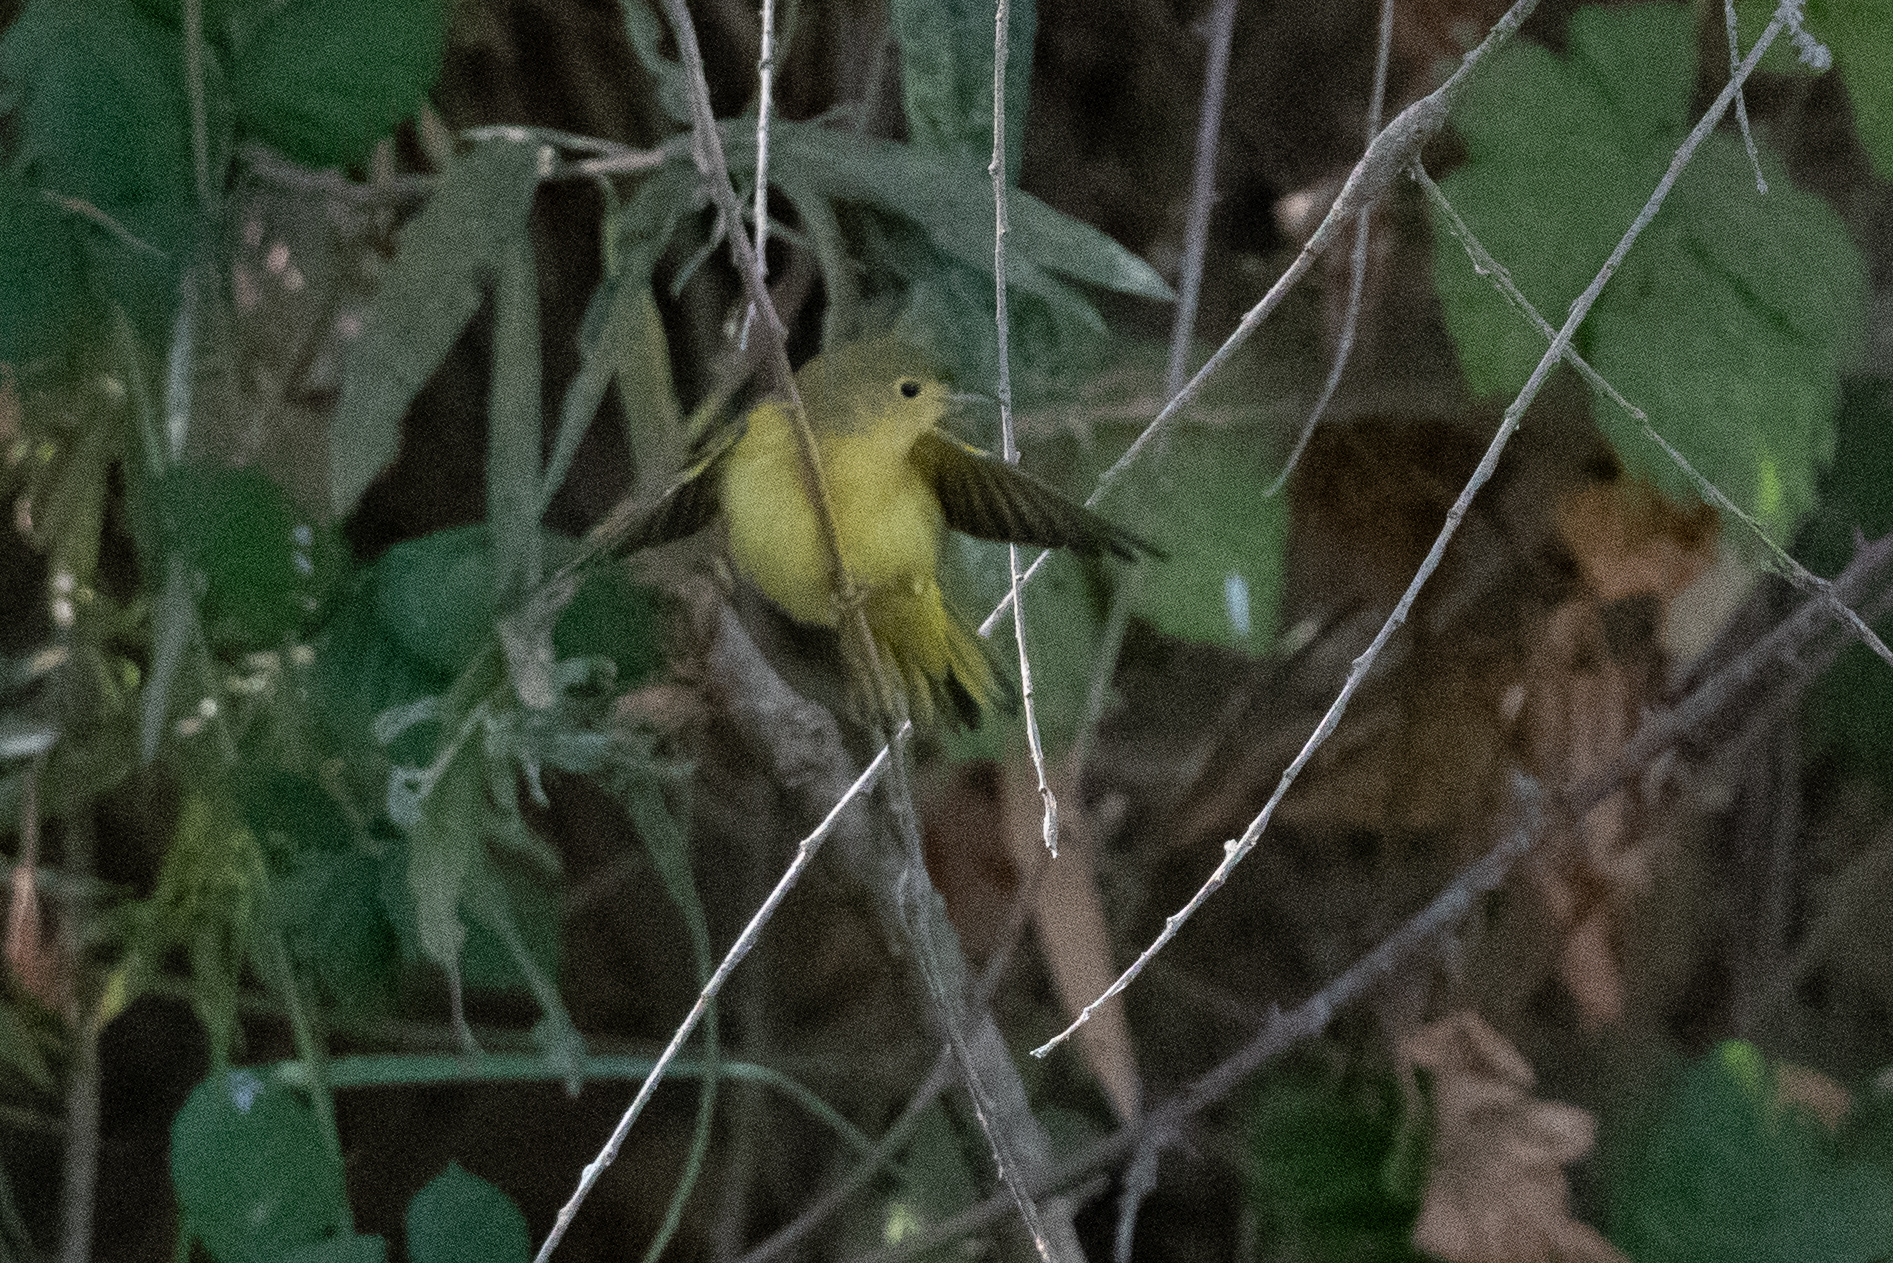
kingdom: Animalia
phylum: Chordata
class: Aves
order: Passeriformes
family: Parulidae
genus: Setophaga
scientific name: Setophaga petechia
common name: Yellow warbler
